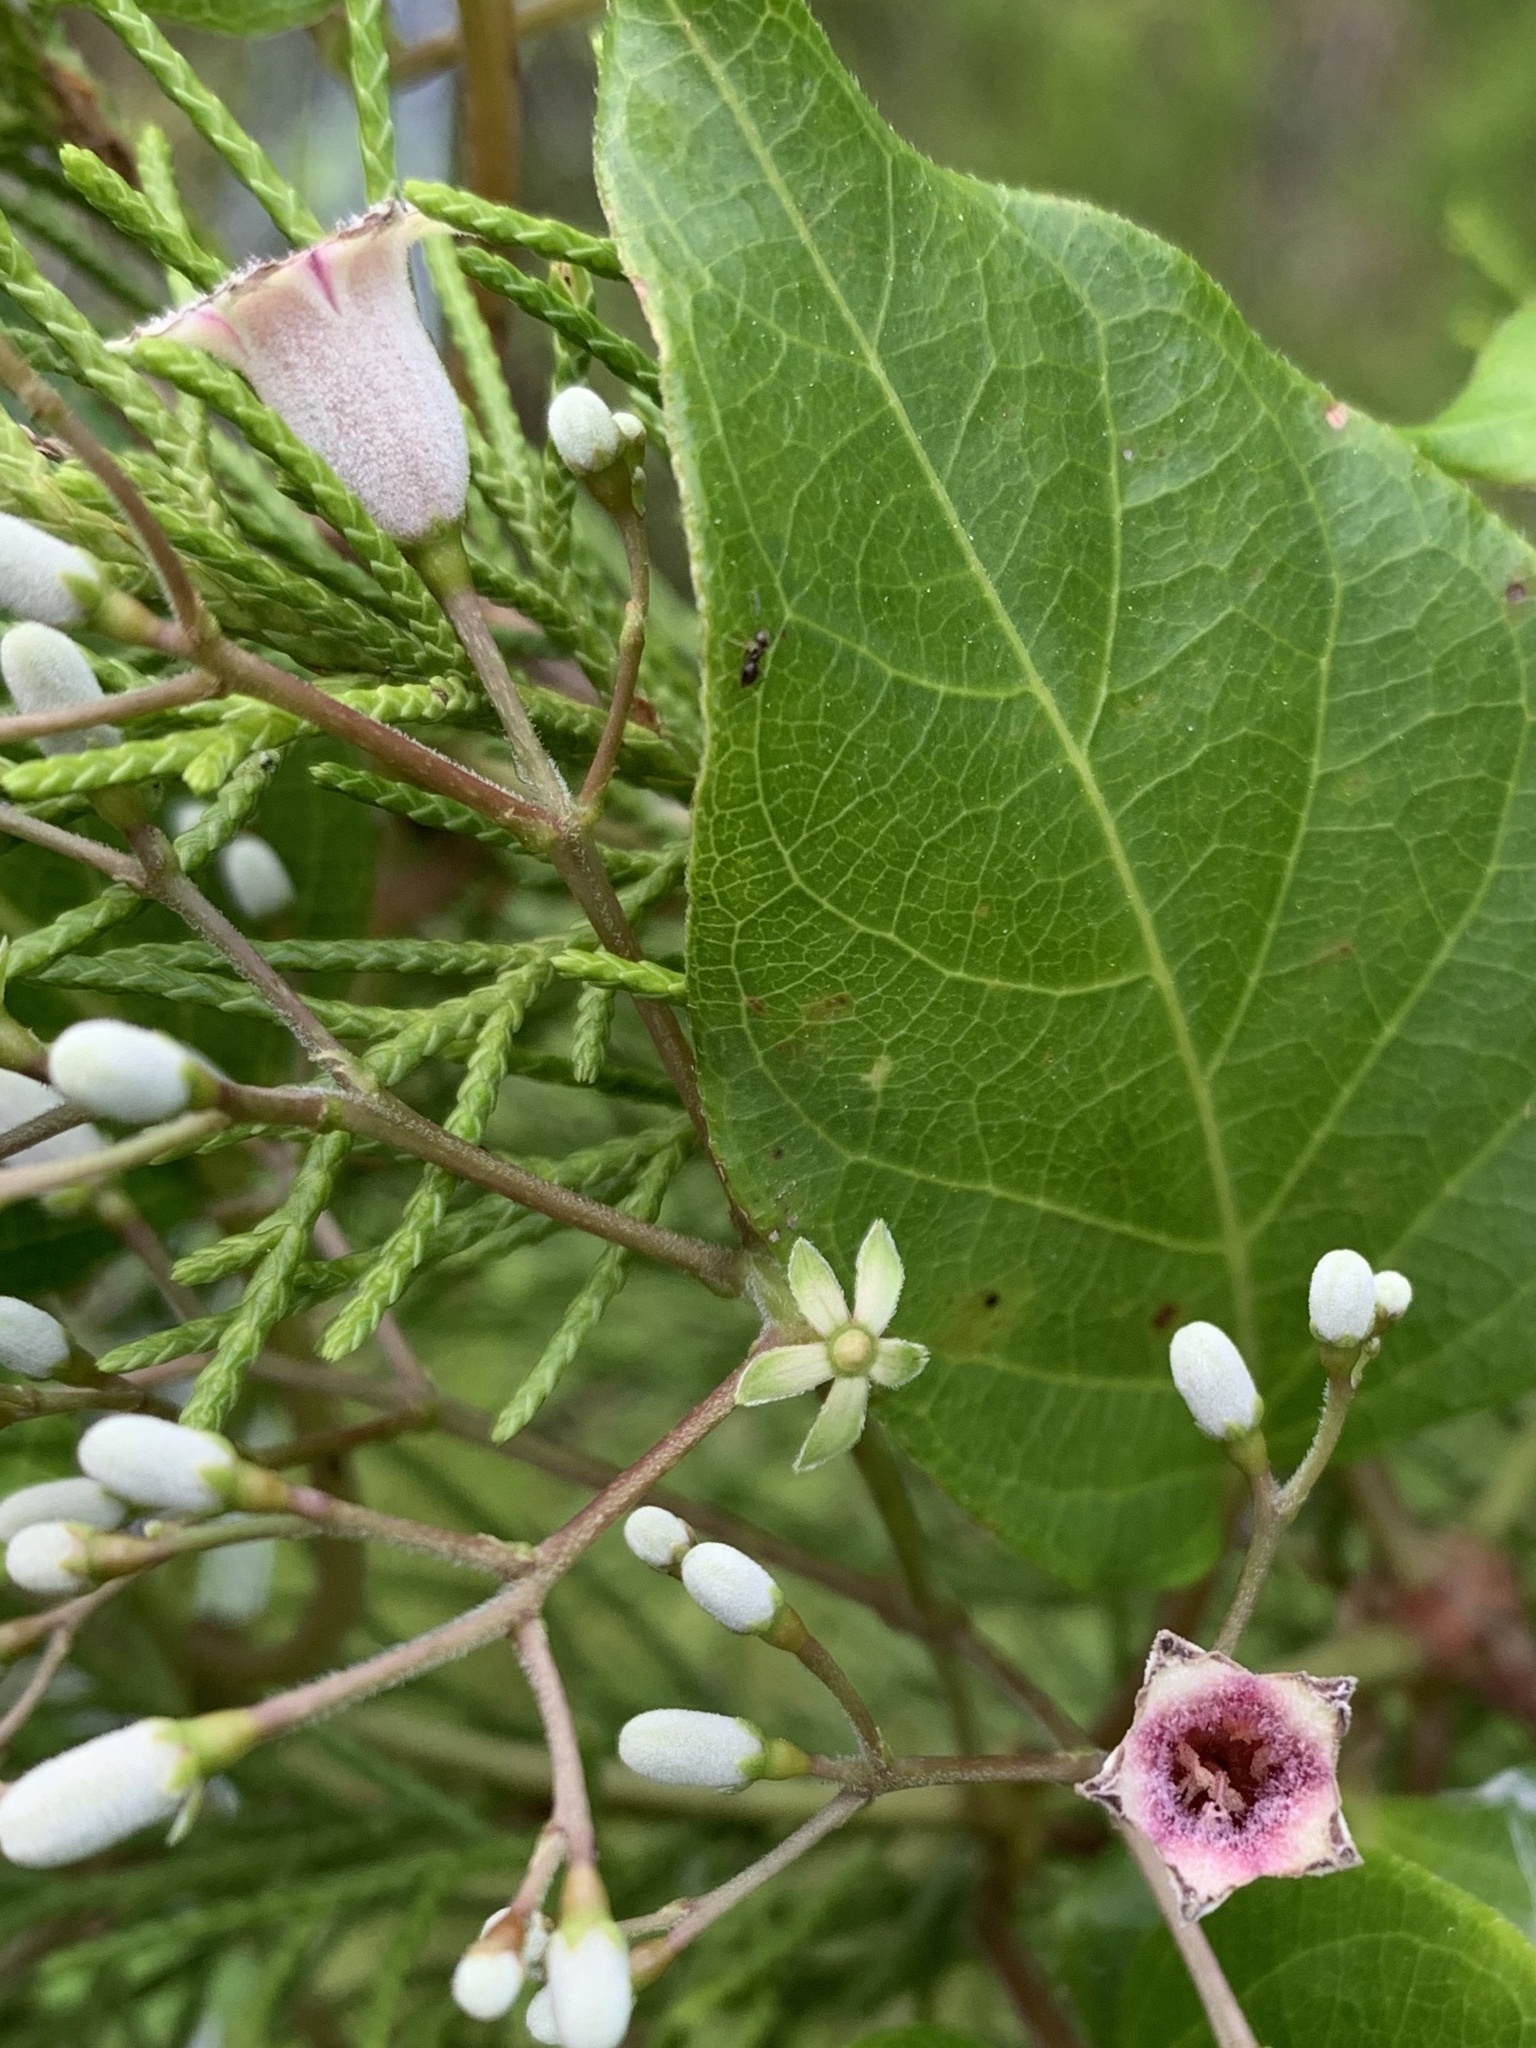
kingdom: Plantae
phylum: Tracheophyta
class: Magnoliopsida
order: Gentianales
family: Rubiaceae
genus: Paederia
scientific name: Paederia foetida
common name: Stinkvine
